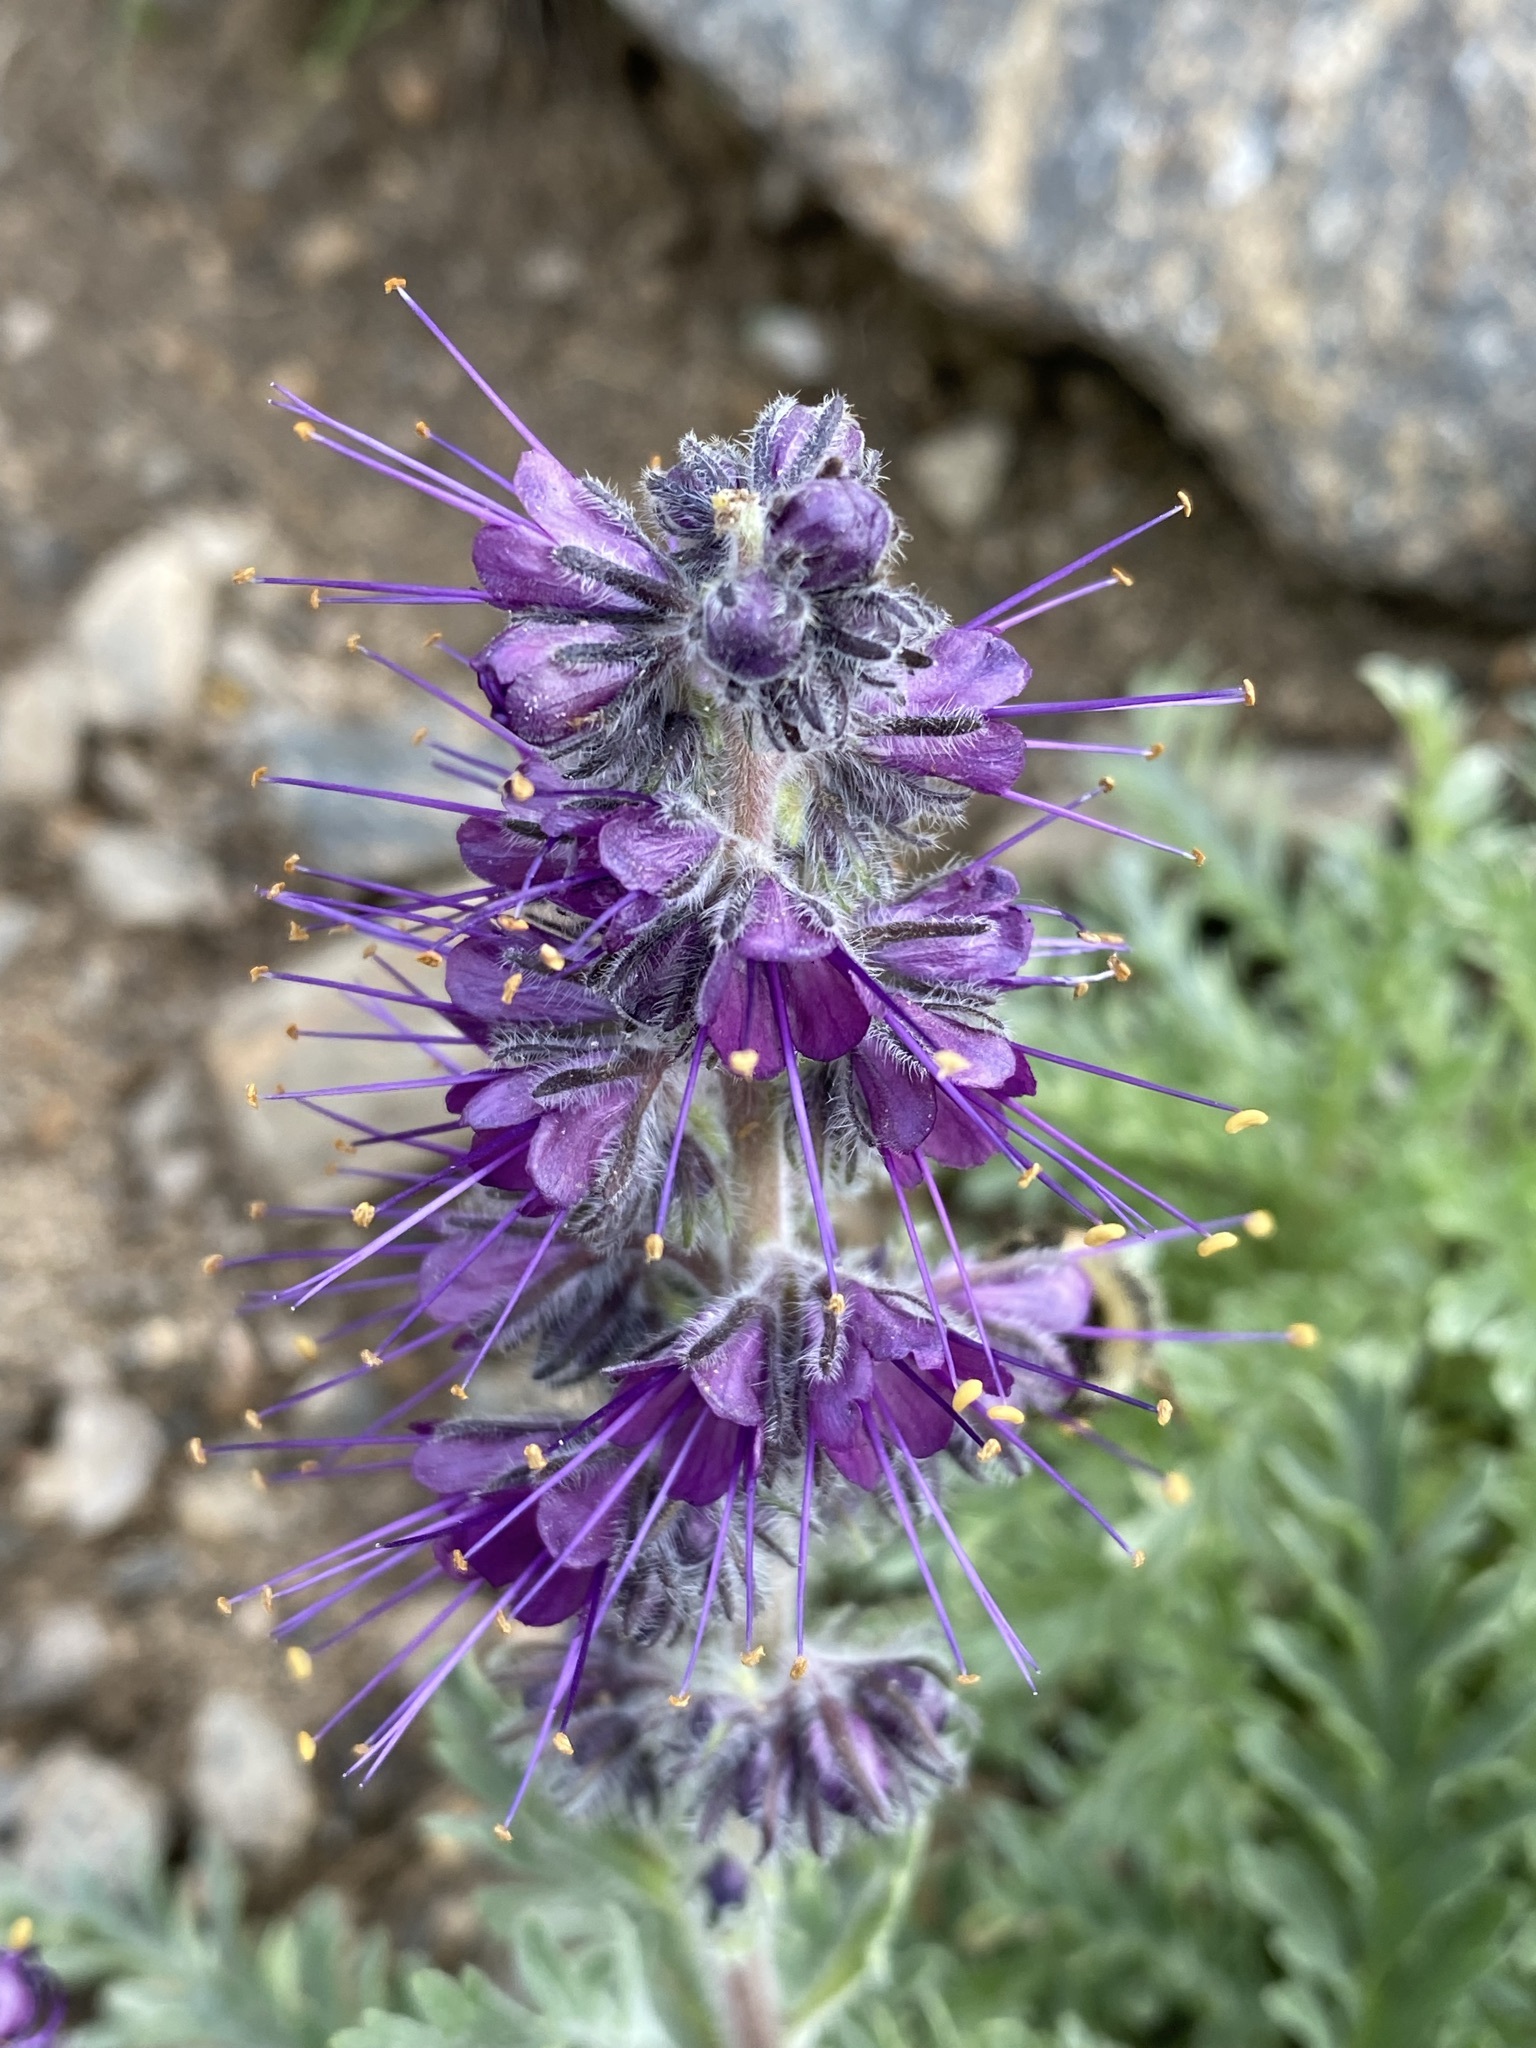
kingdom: Plantae
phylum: Tracheophyta
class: Magnoliopsida
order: Boraginales
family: Hydrophyllaceae
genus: Phacelia
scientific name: Phacelia sericea
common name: Silky phacelia
